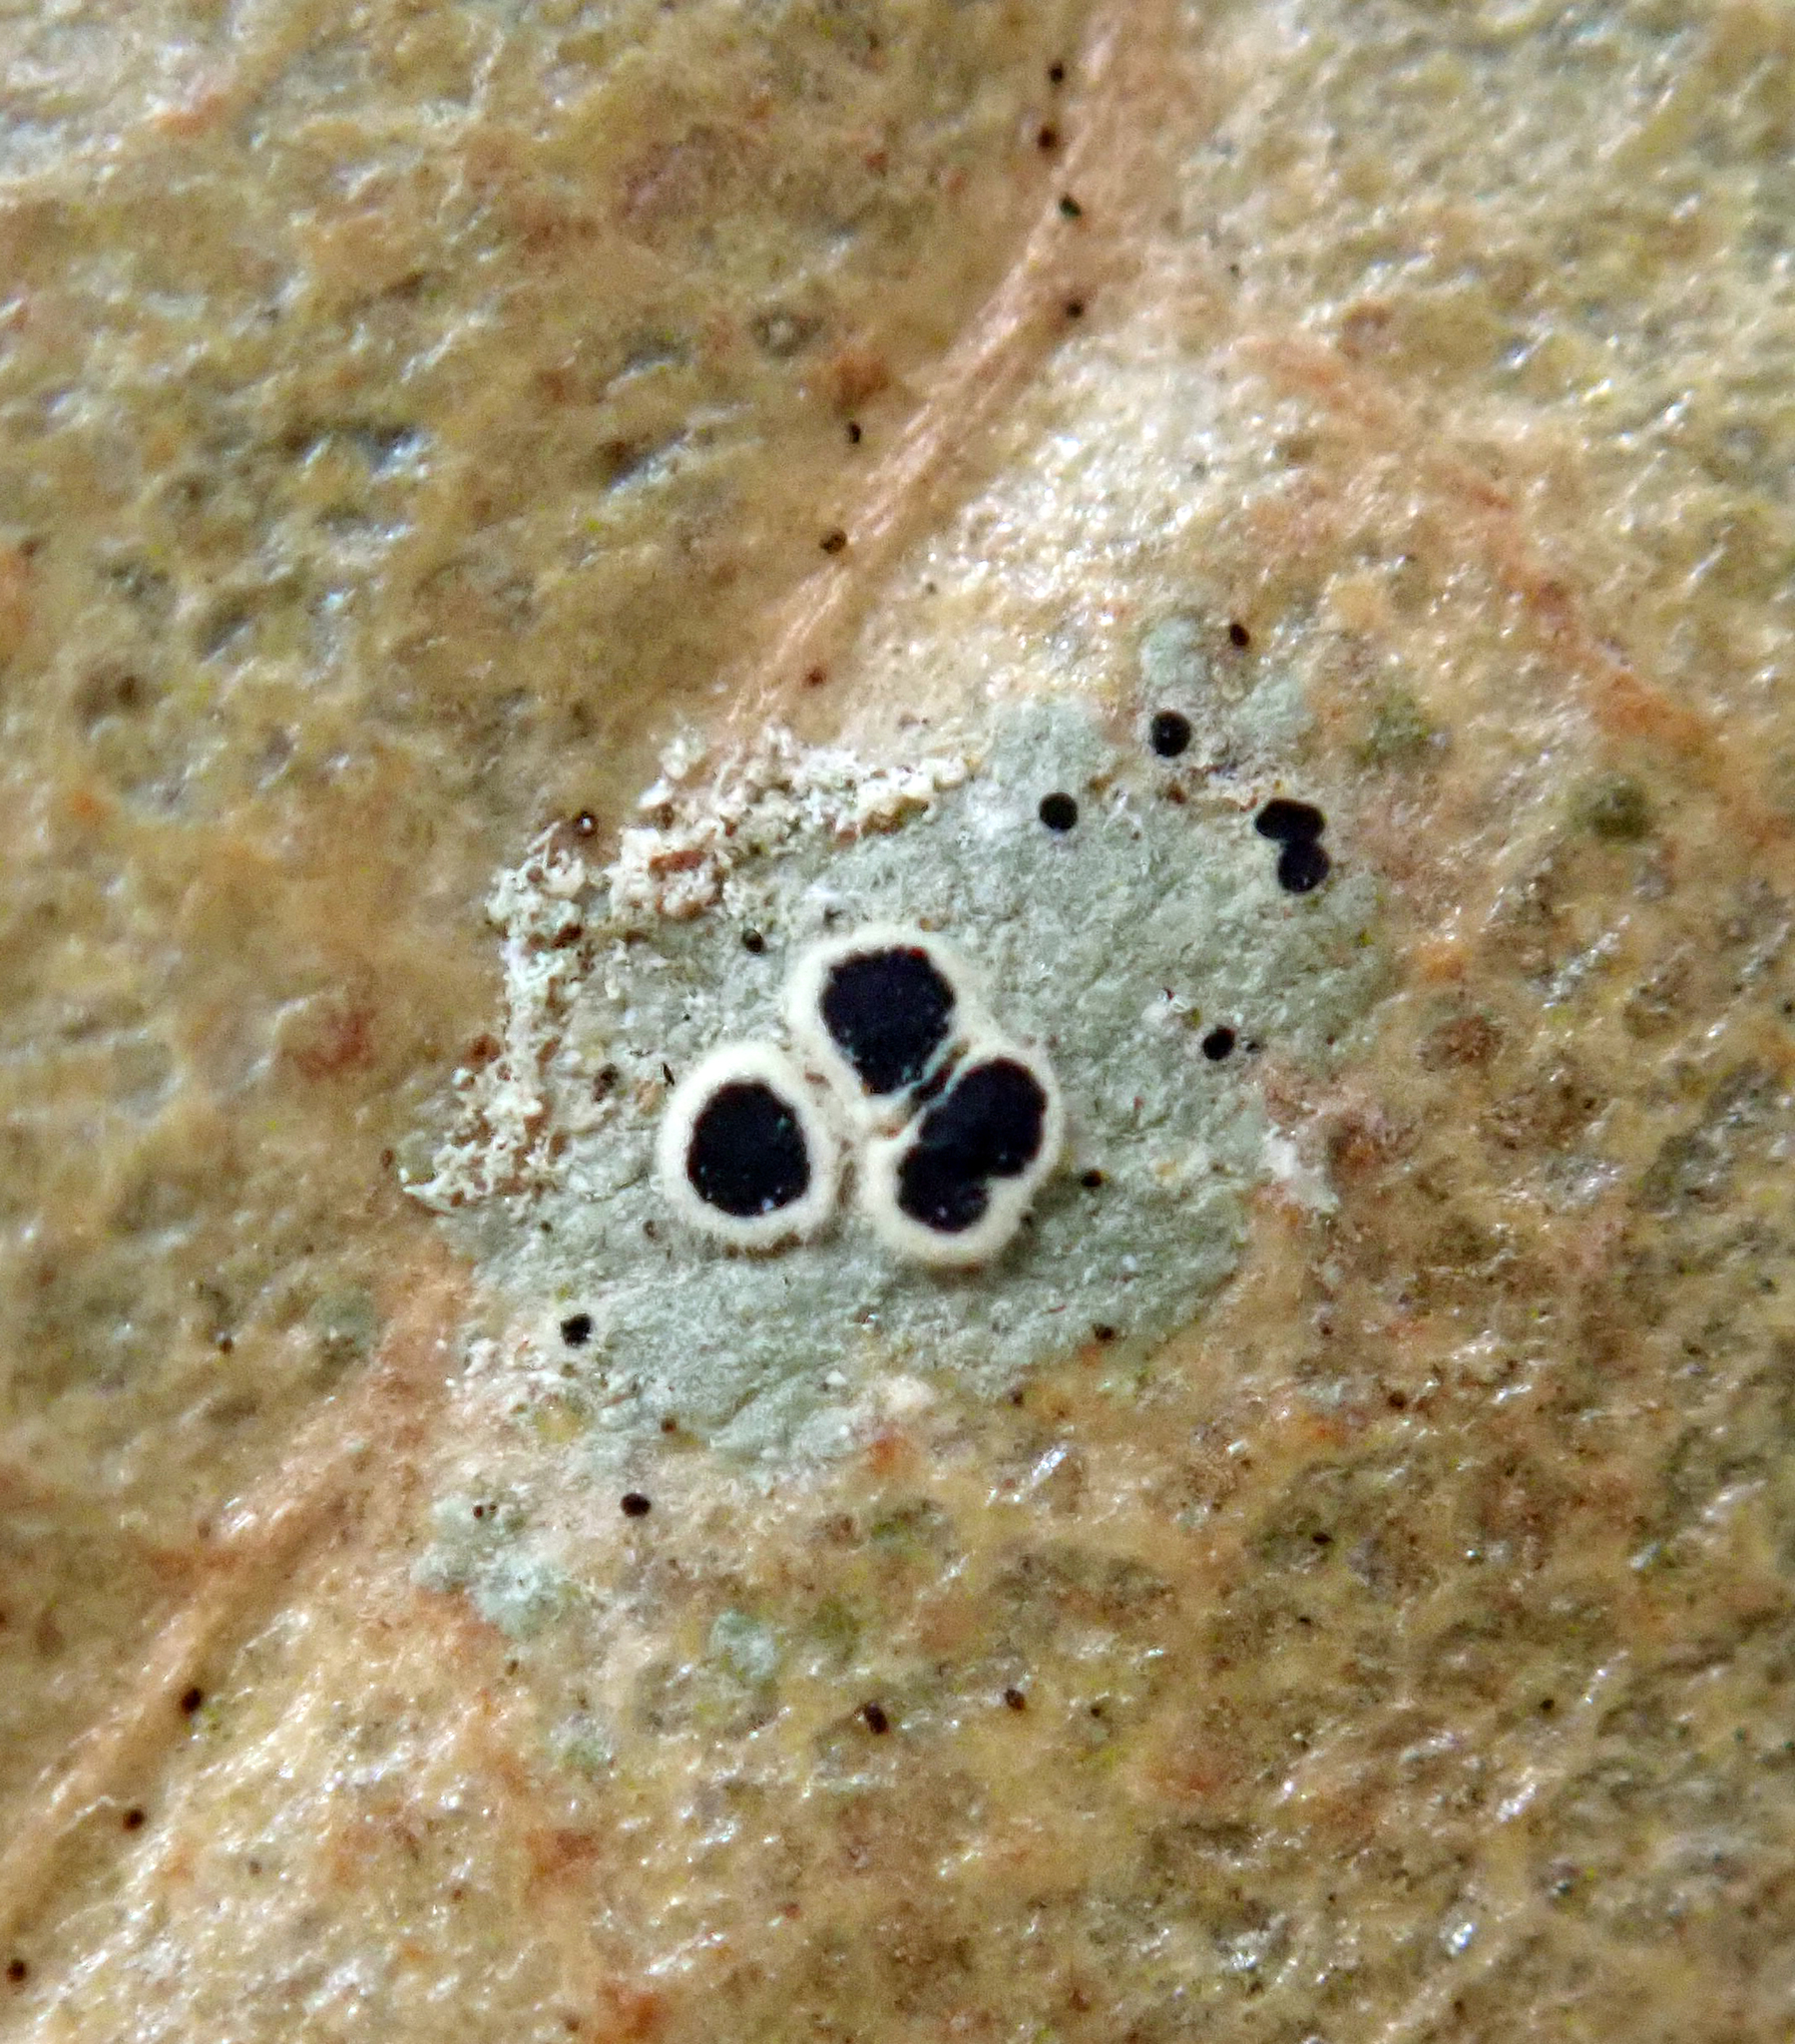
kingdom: Fungi
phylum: Ascomycota
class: Lecanoromycetes
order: Lecanorales
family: Byssolomataceae
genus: Byssoloma
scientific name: Byssoloma subdiscordans
